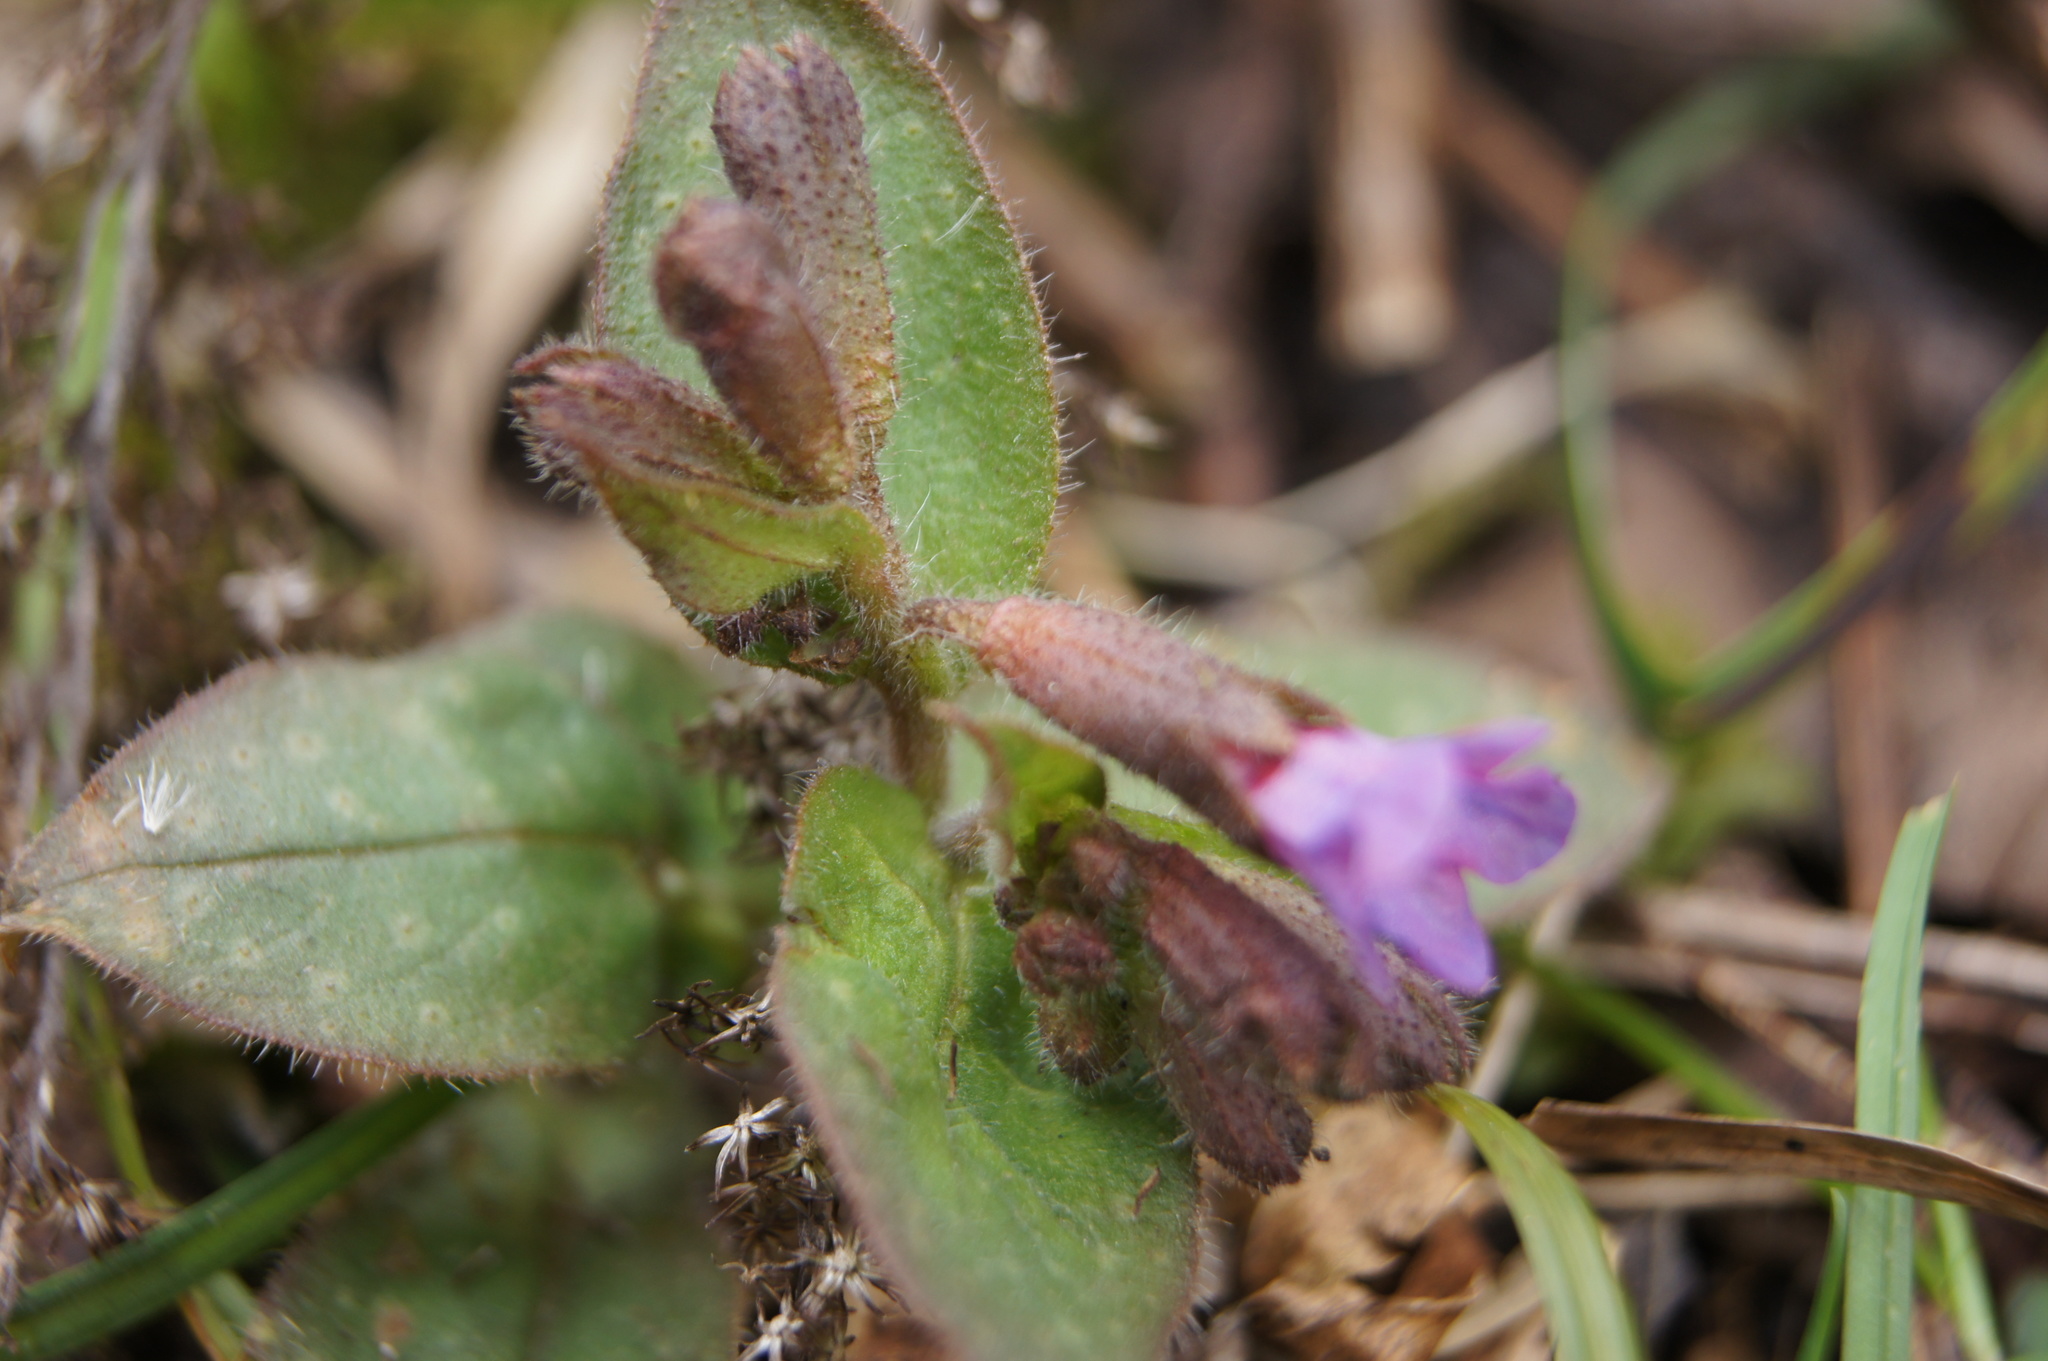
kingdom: Plantae
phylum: Tracheophyta
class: Magnoliopsida
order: Boraginales
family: Boraginaceae
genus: Pulmonaria
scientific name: Pulmonaria officinalis
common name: Lungwort
